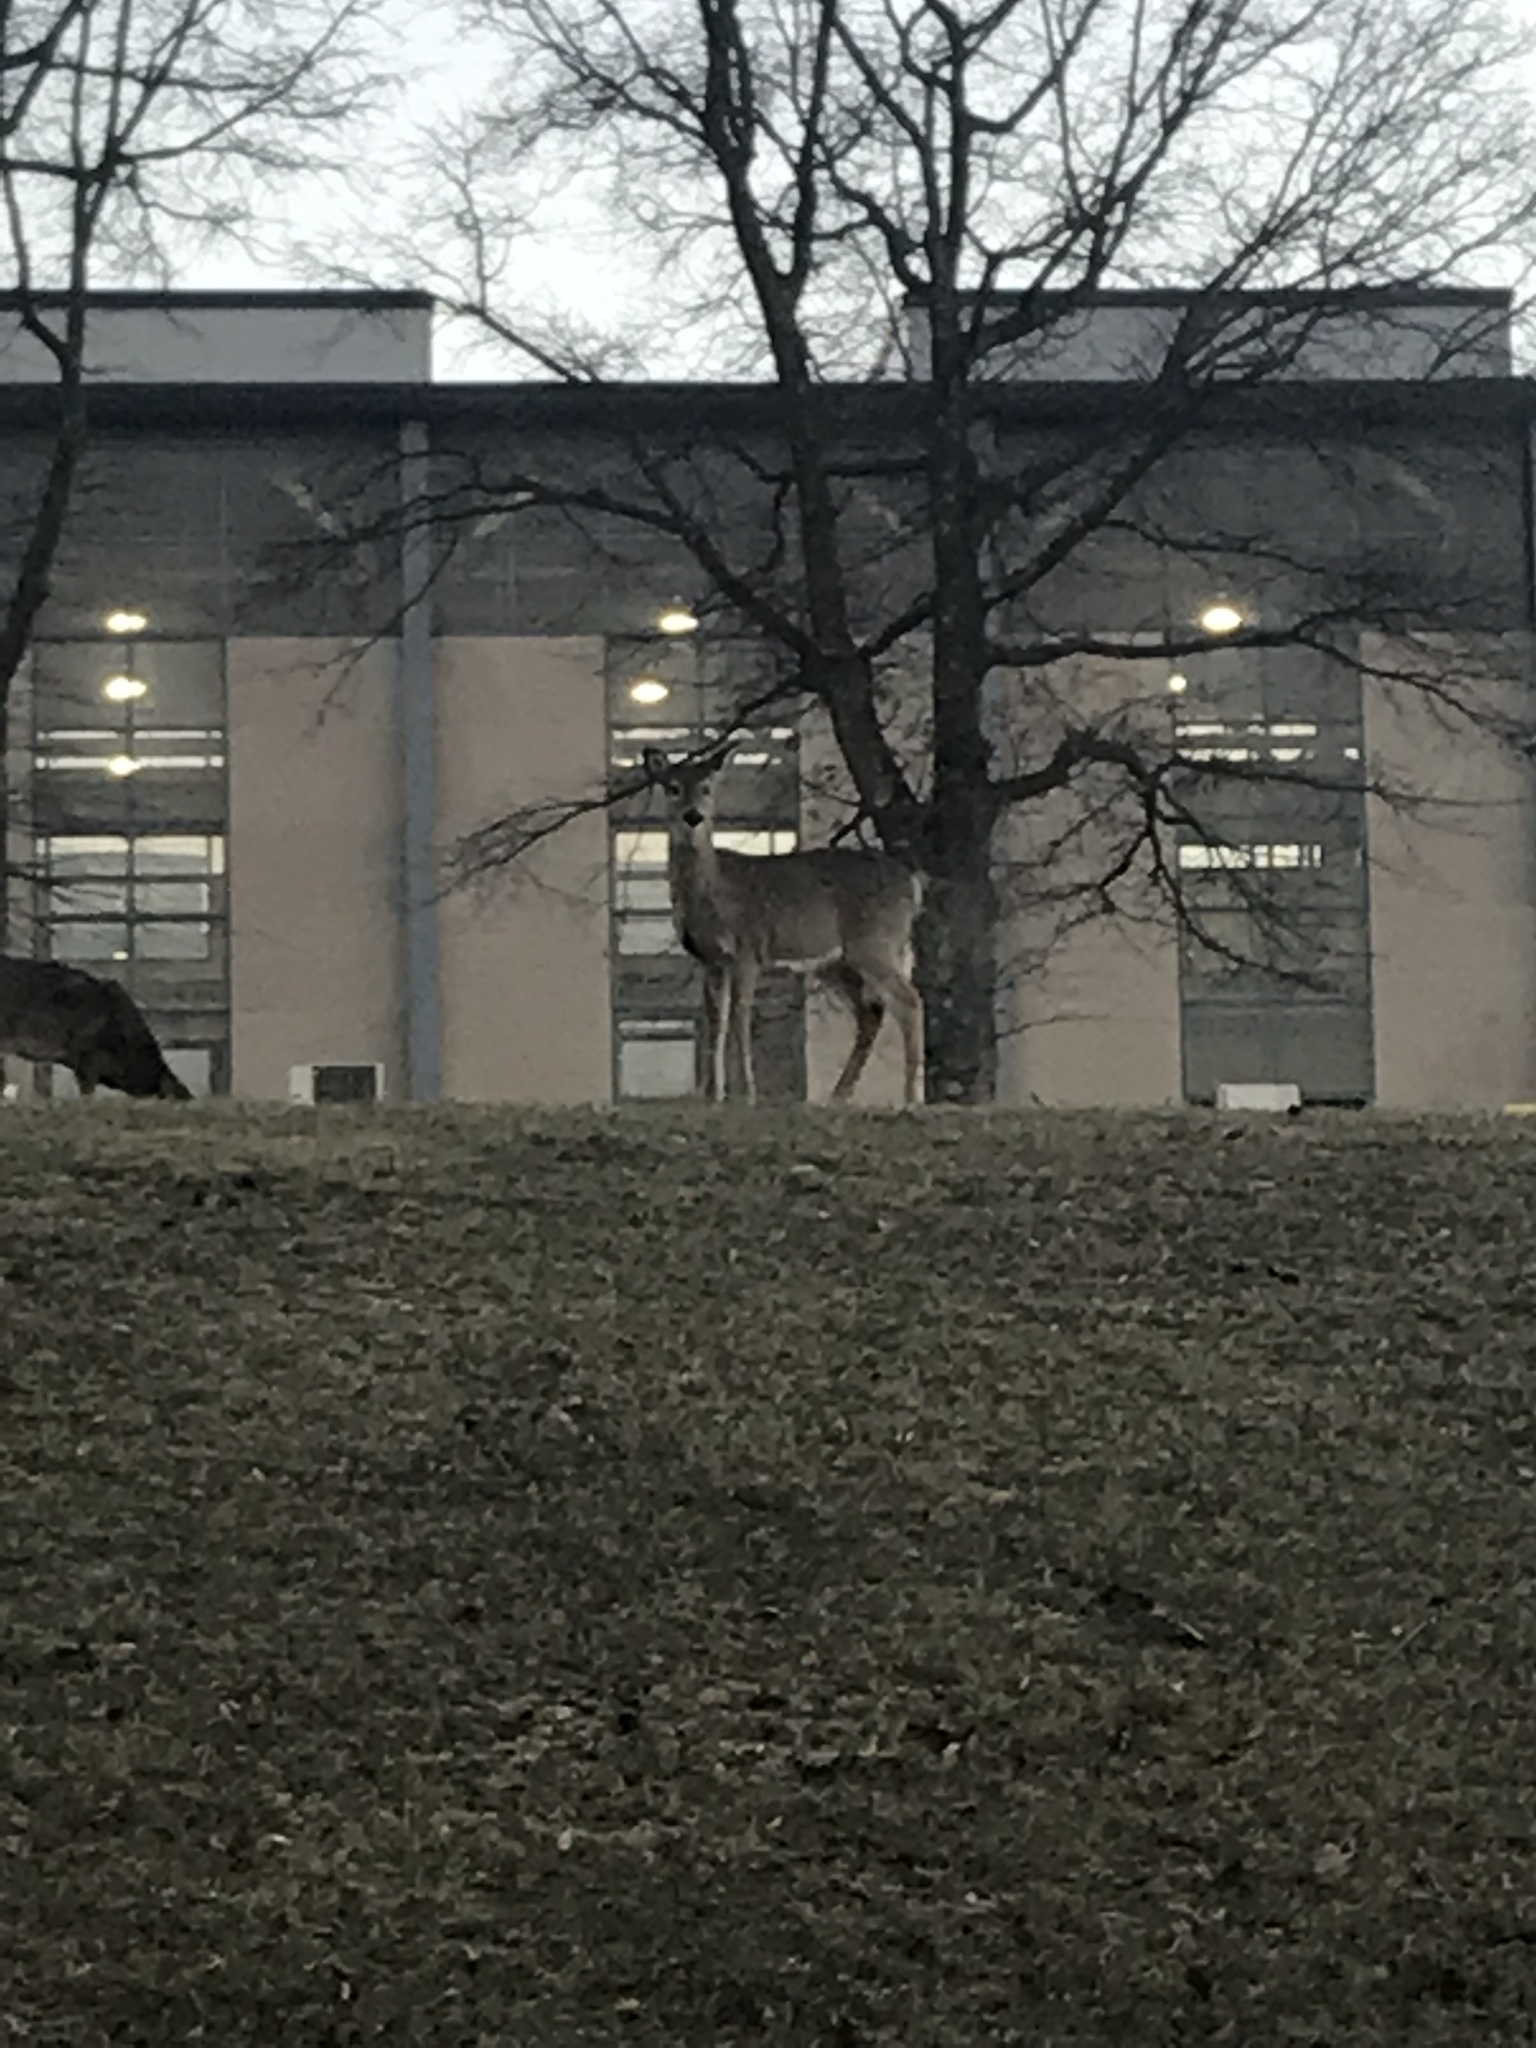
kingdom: Animalia
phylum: Chordata
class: Mammalia
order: Artiodactyla
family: Cervidae
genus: Odocoileus
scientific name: Odocoileus virginianus
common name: White-tailed deer
